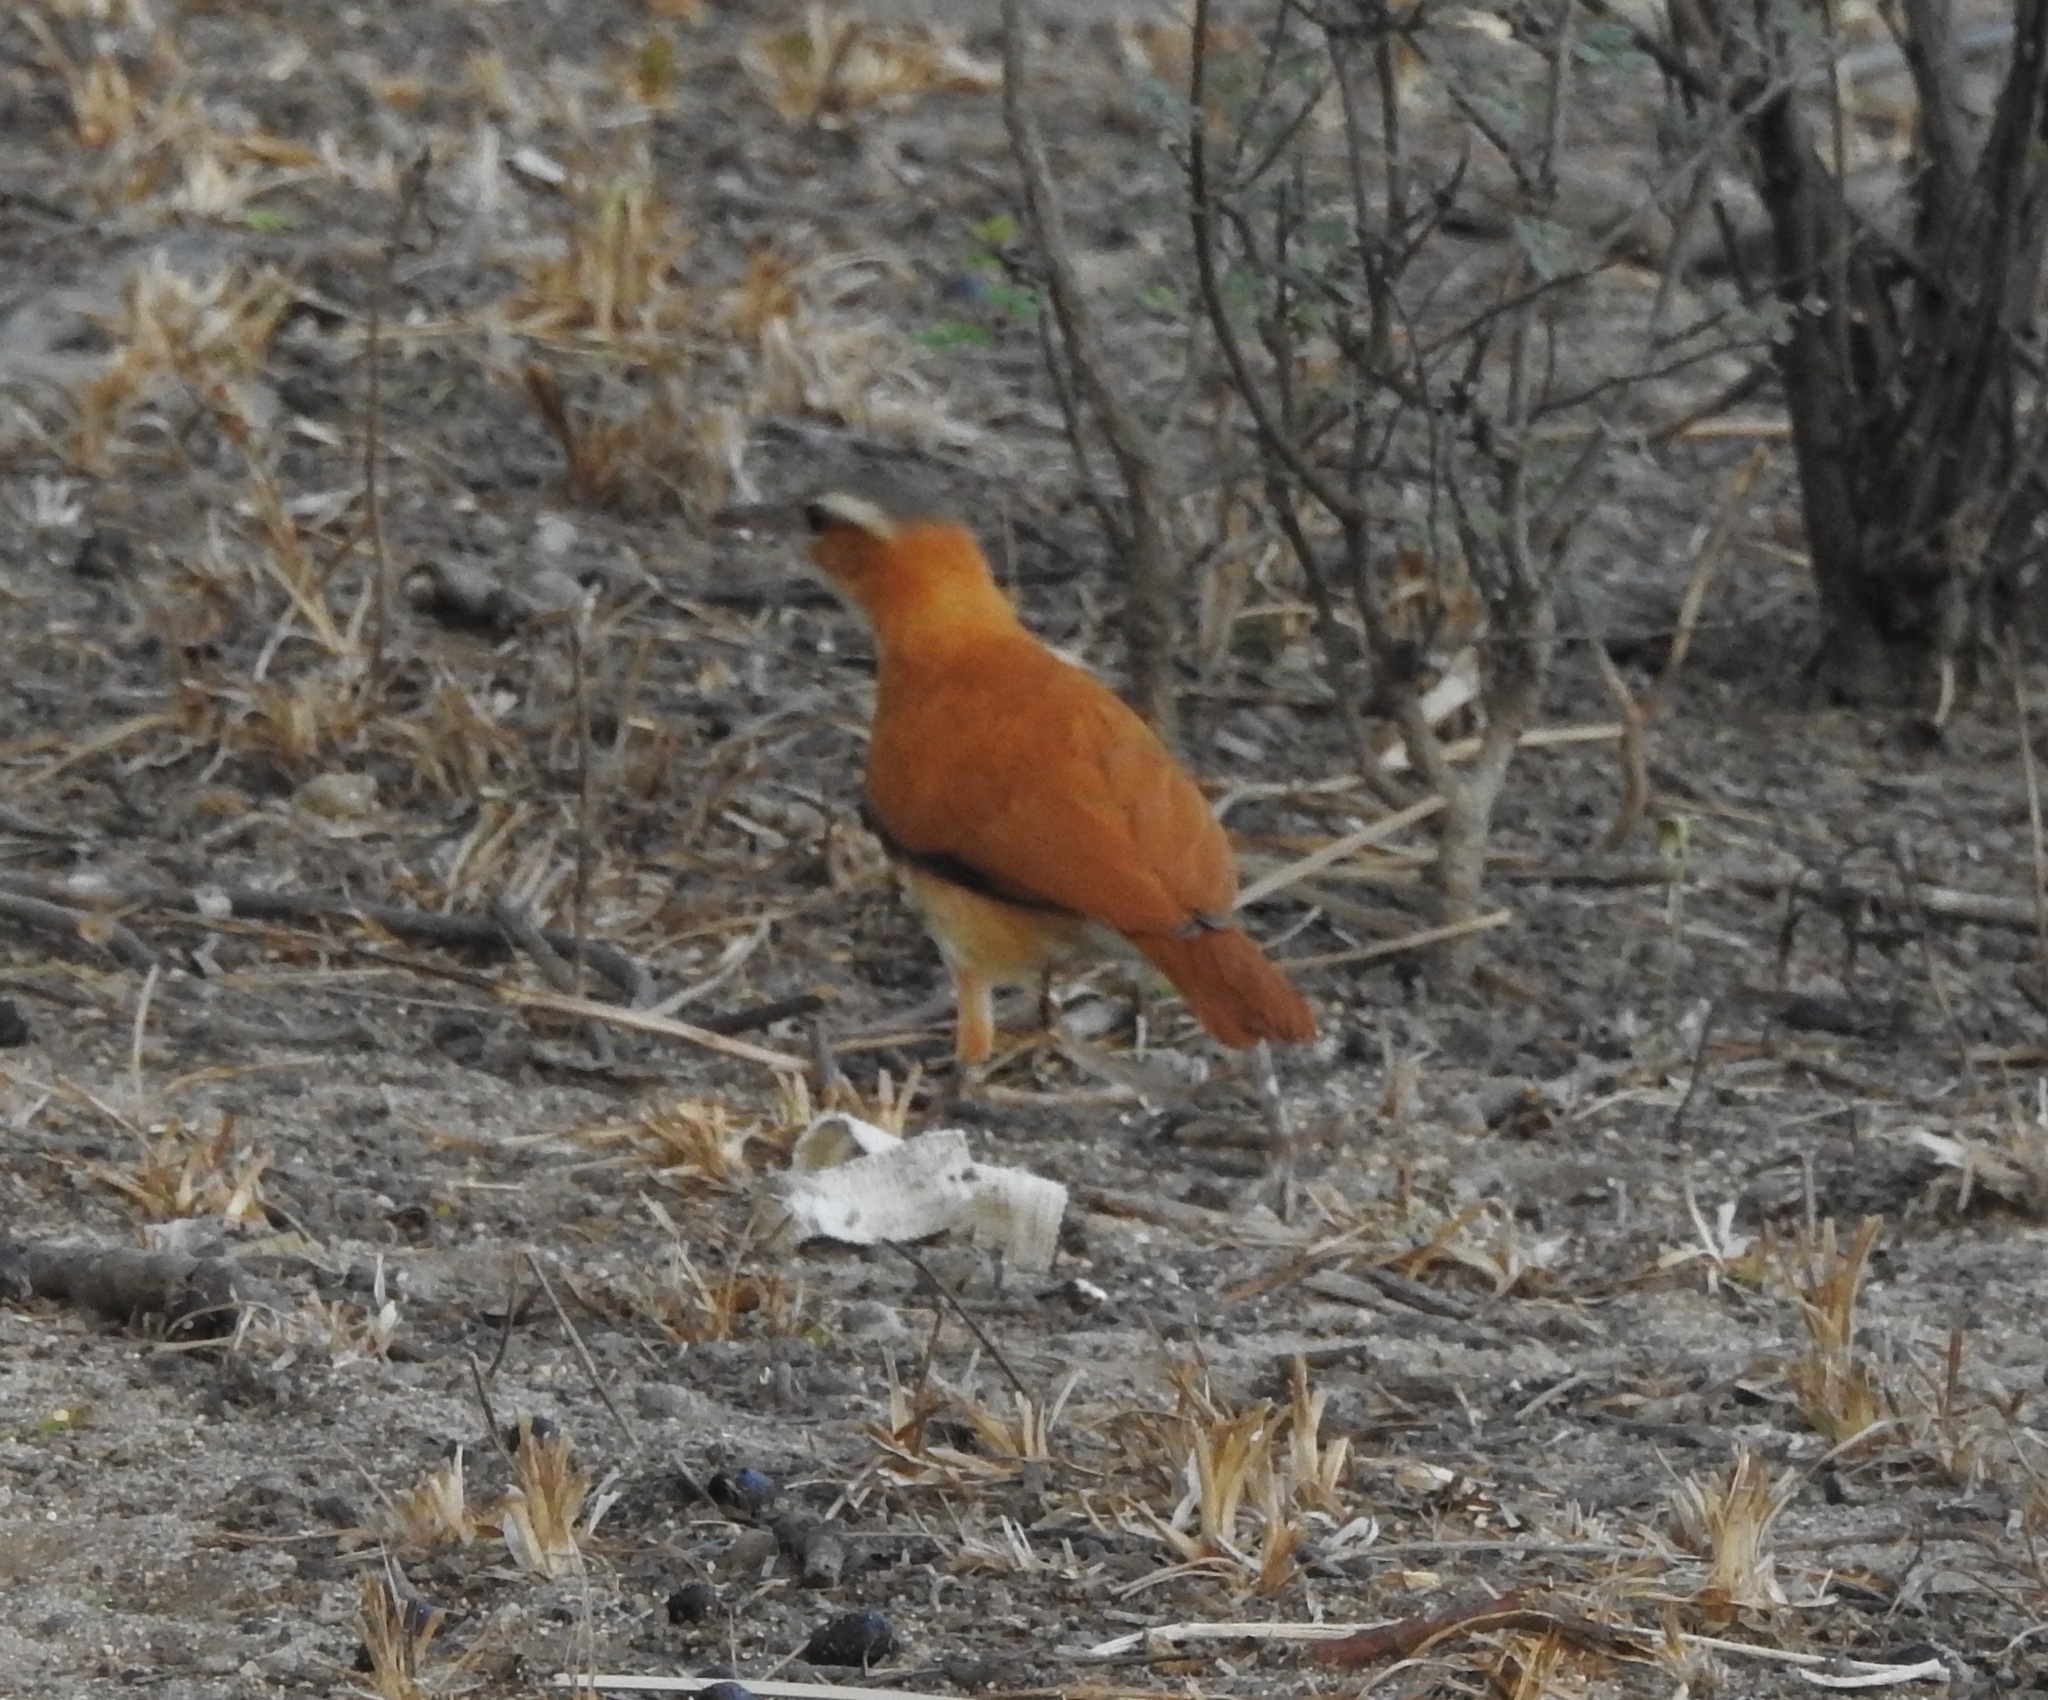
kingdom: Animalia
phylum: Chordata
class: Aves
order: Passeriformes
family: Furnariidae
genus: Furnarius
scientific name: Furnarius longirostris
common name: Caribbean hornero
